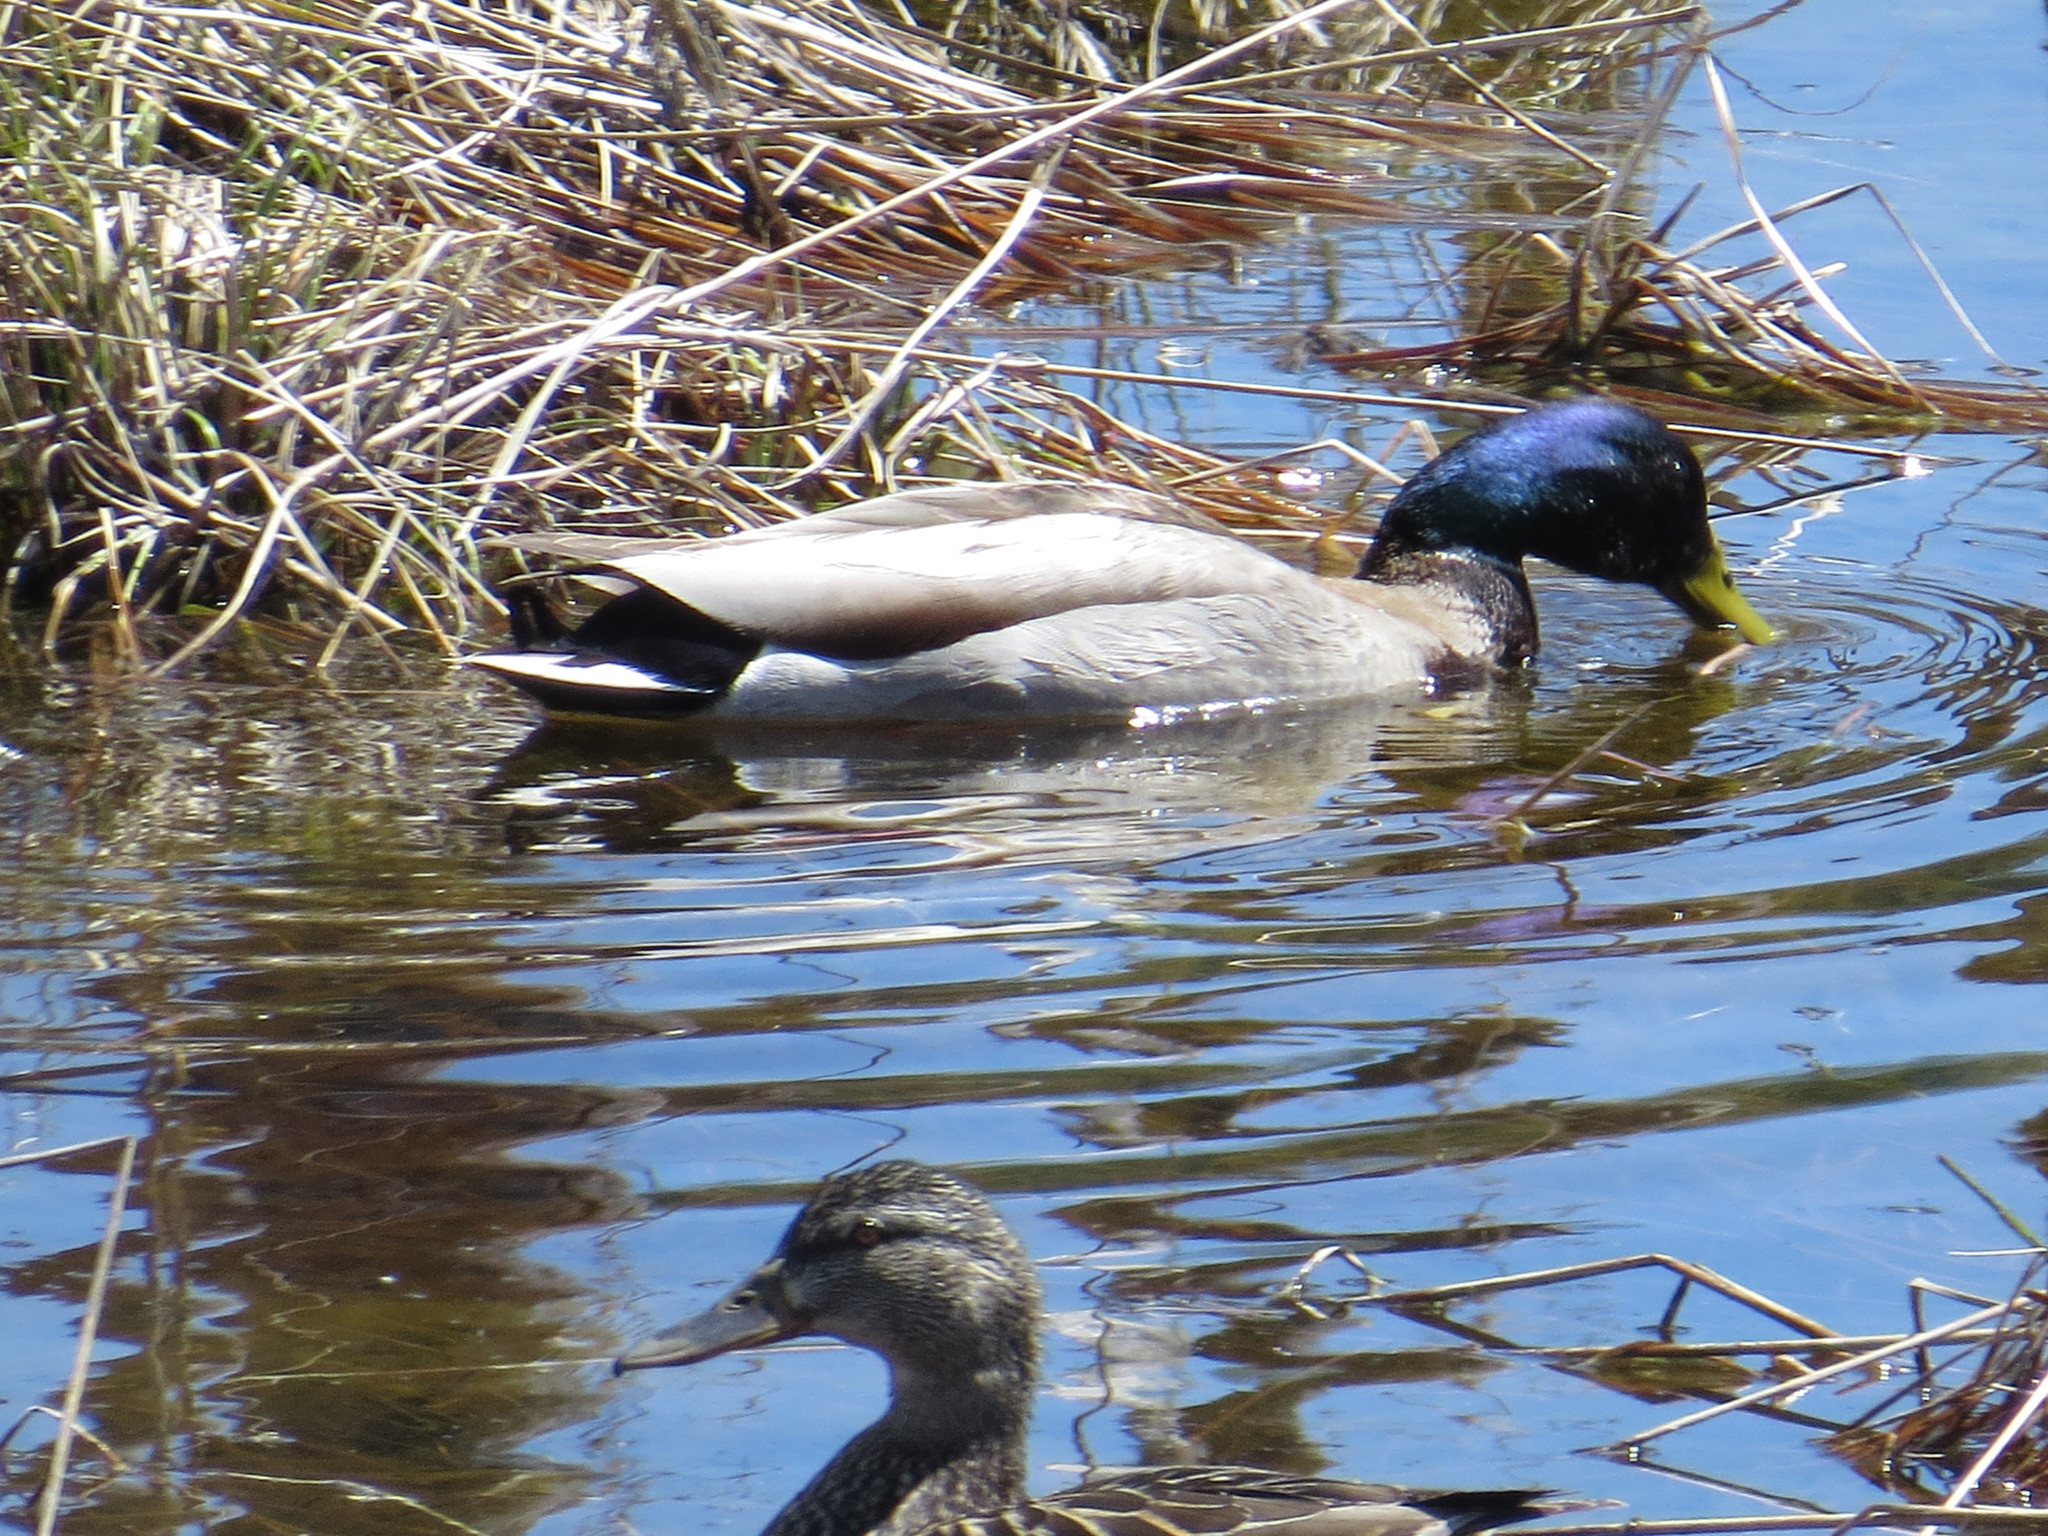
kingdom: Animalia
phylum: Chordata
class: Aves
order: Anseriformes
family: Anatidae
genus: Anas
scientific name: Anas platyrhynchos
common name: Mallard
